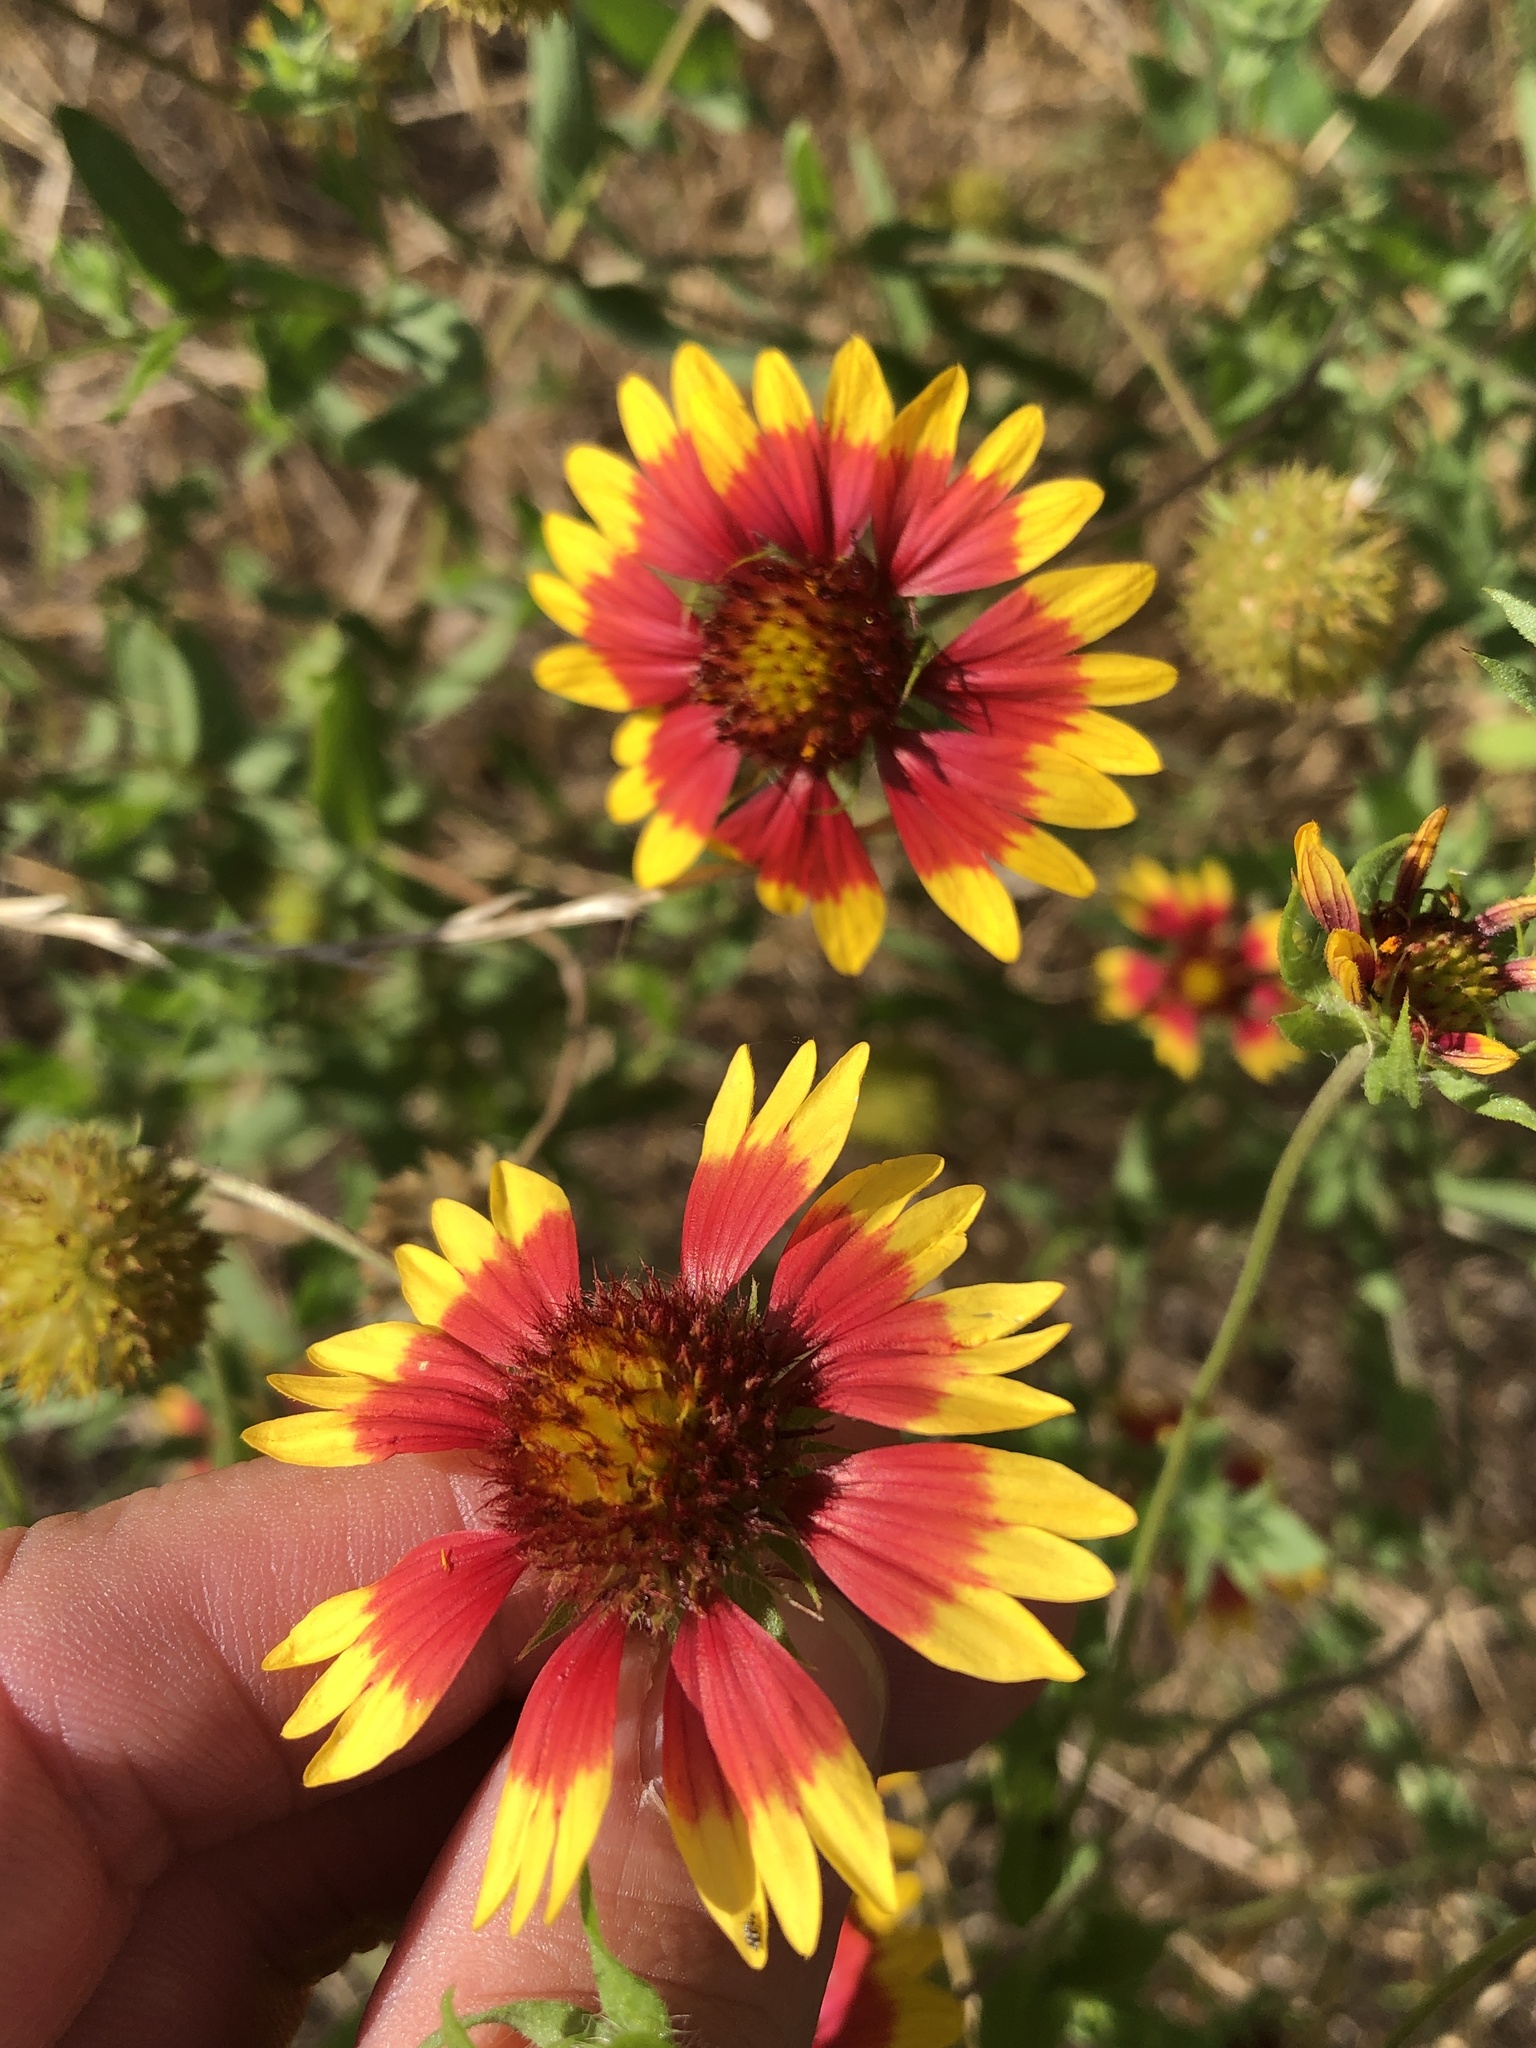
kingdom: Plantae
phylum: Tracheophyta
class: Magnoliopsida
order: Asterales
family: Asteraceae
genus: Gaillardia
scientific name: Gaillardia pulchella
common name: Firewheel
